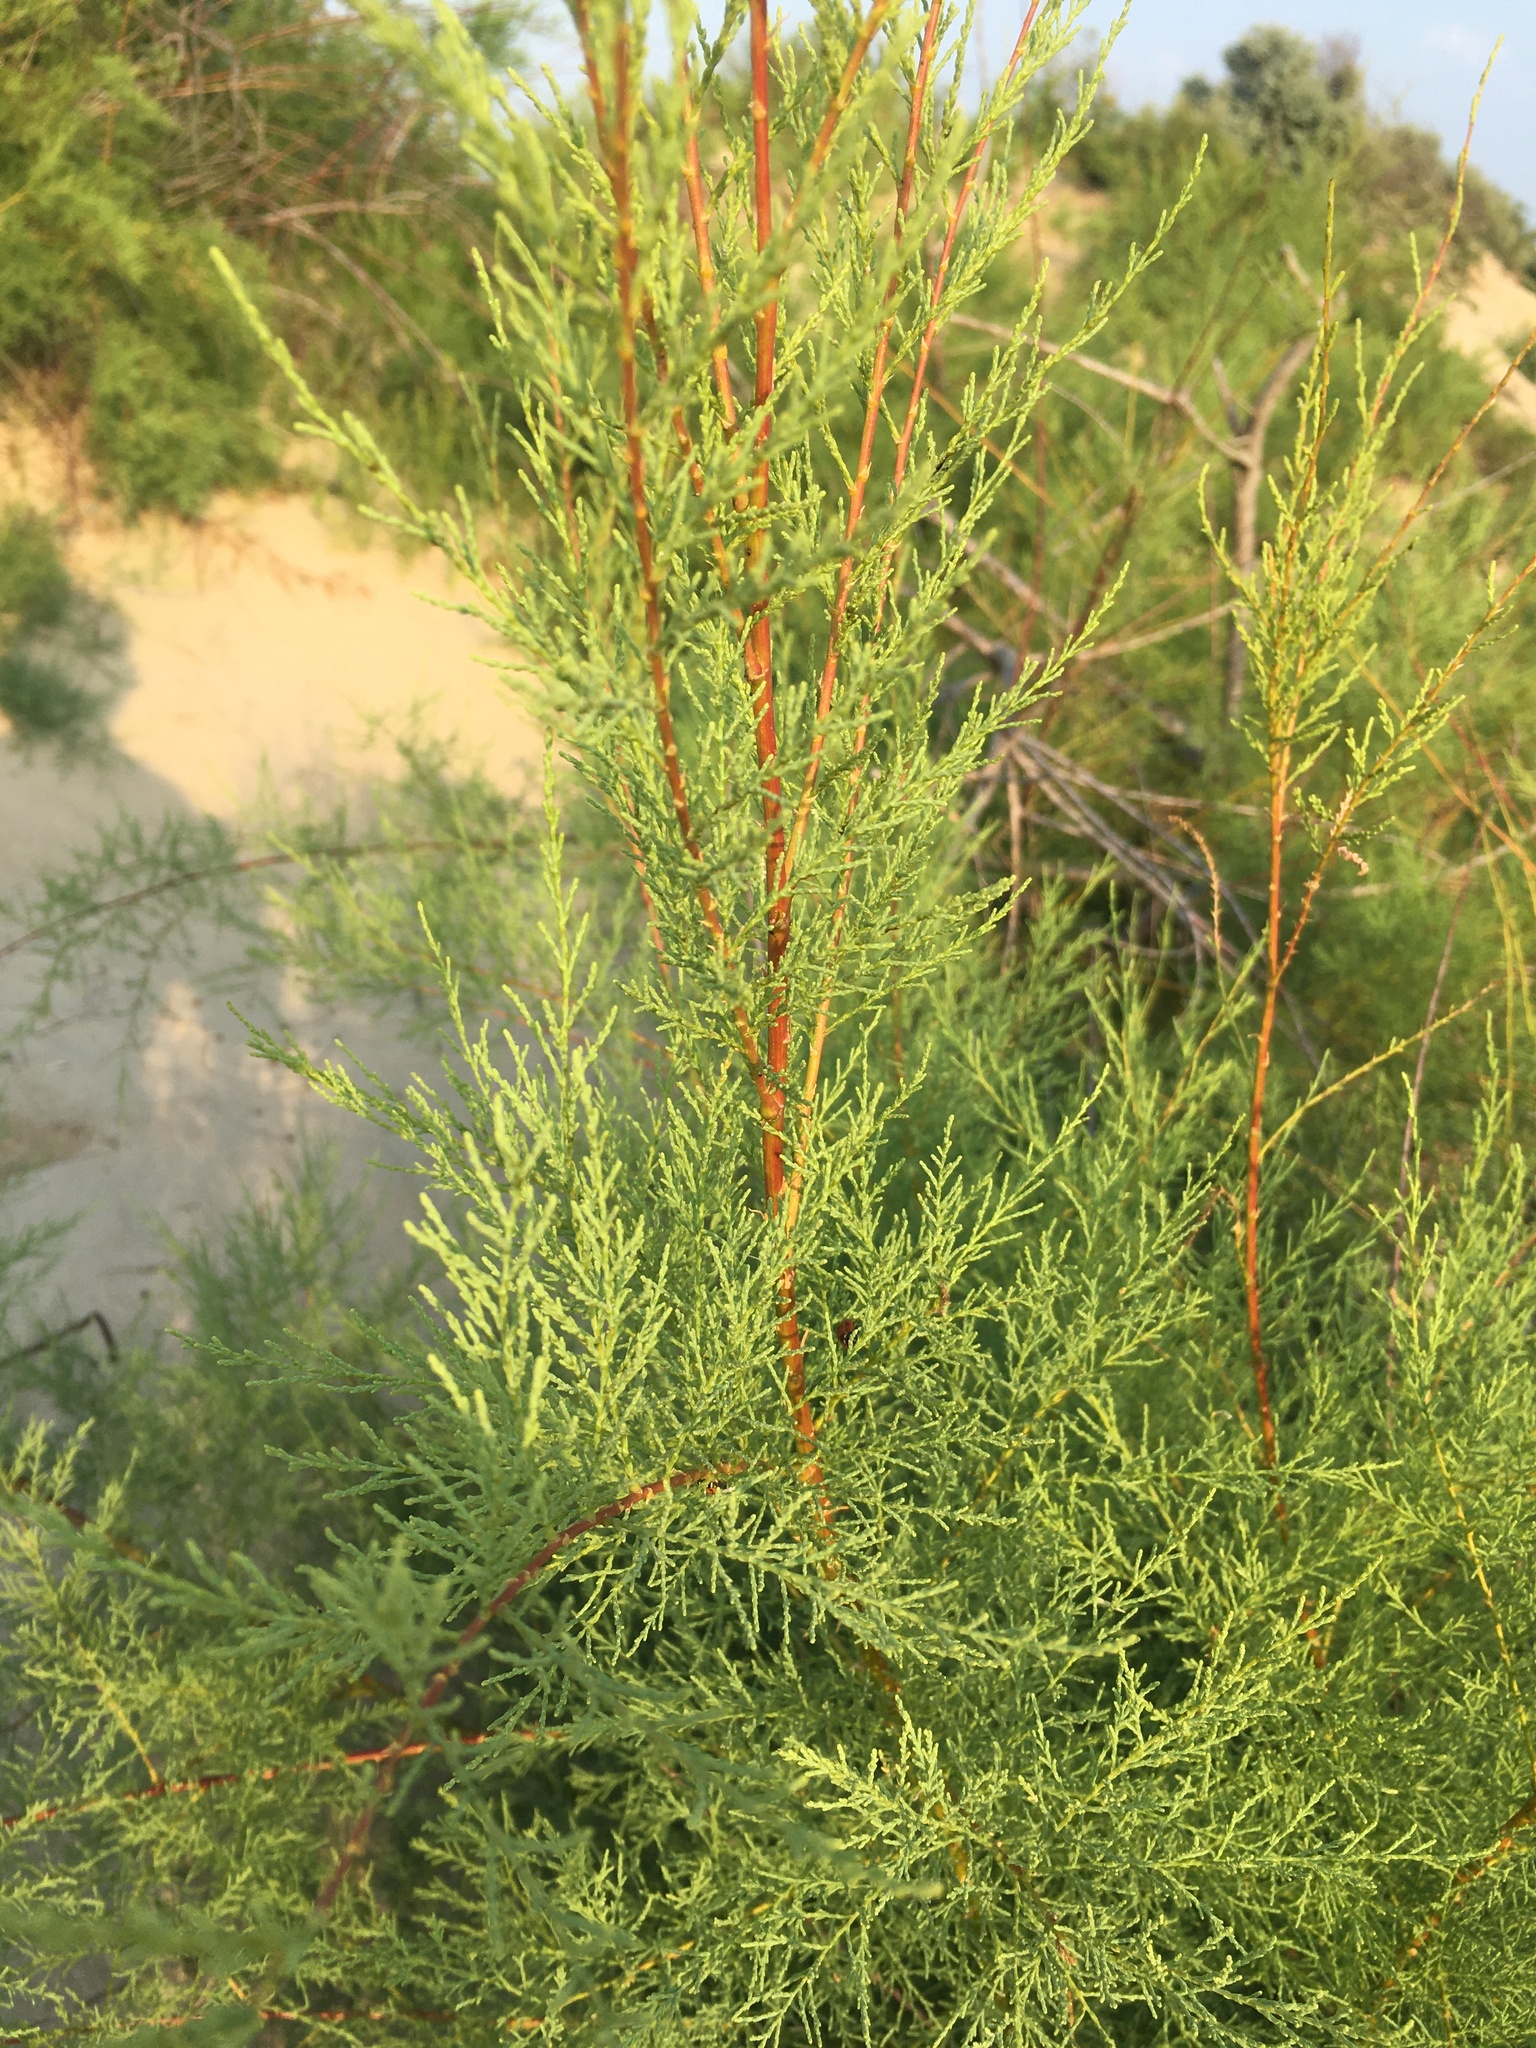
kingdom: Plantae
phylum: Tracheophyta
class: Magnoliopsida
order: Caryophyllales
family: Tamaricaceae
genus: Tamarix
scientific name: Tamarix ramosissima
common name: Pink tamarisk
